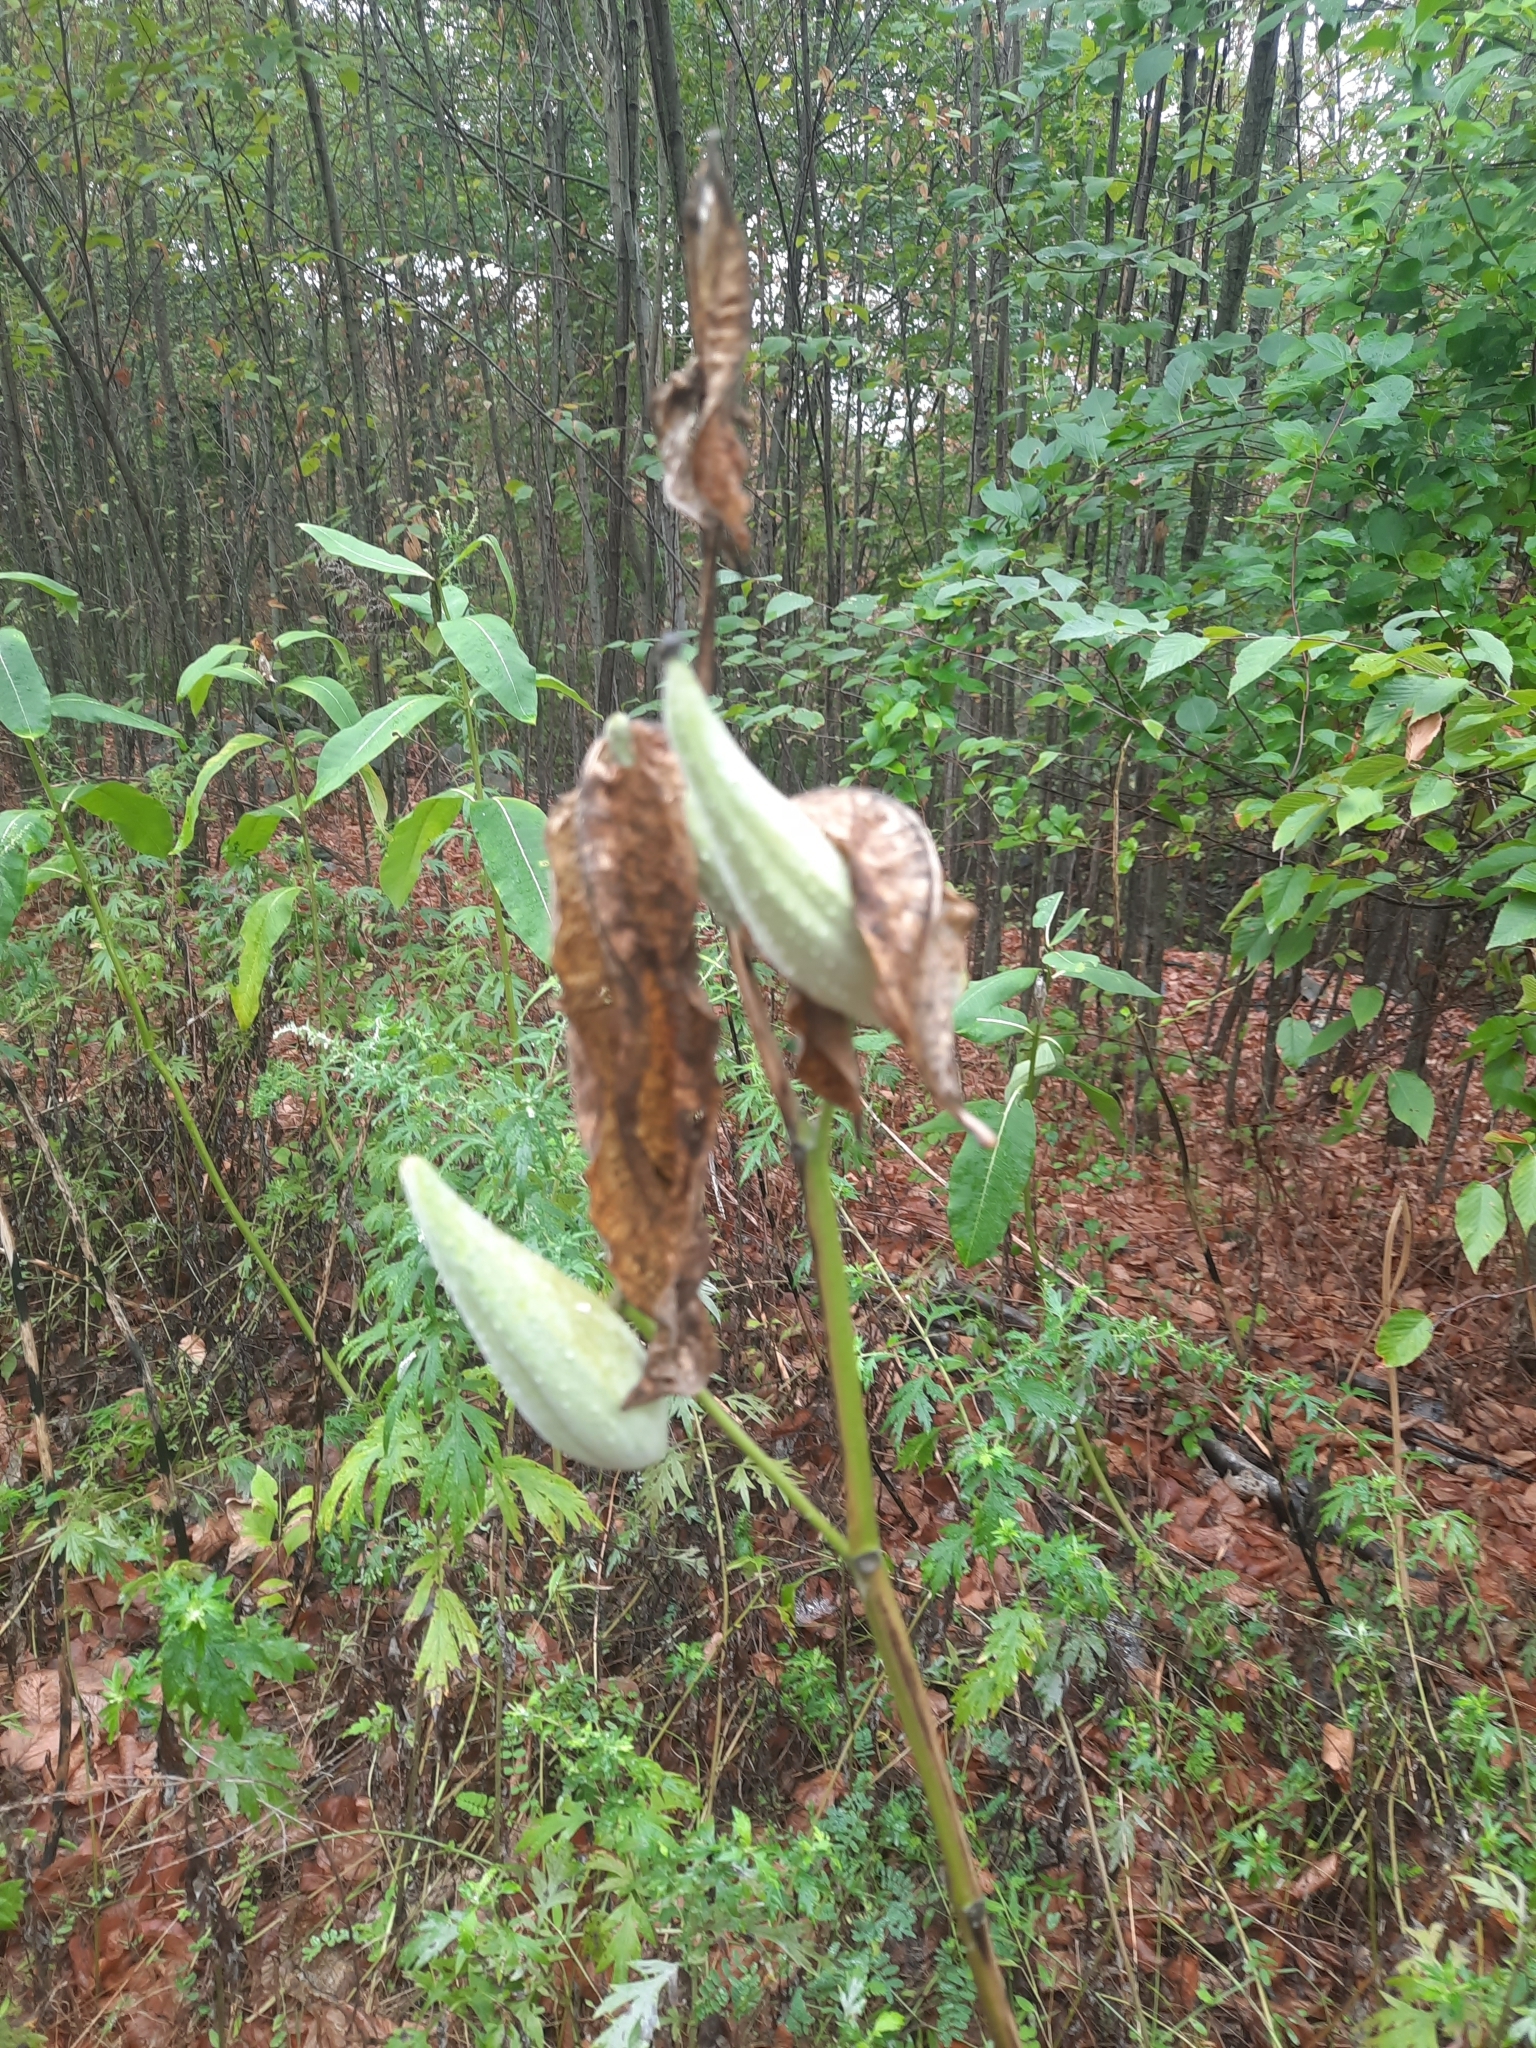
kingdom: Plantae
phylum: Tracheophyta
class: Magnoliopsida
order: Gentianales
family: Apocynaceae
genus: Asclepias
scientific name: Asclepias syriaca
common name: Common milkweed
